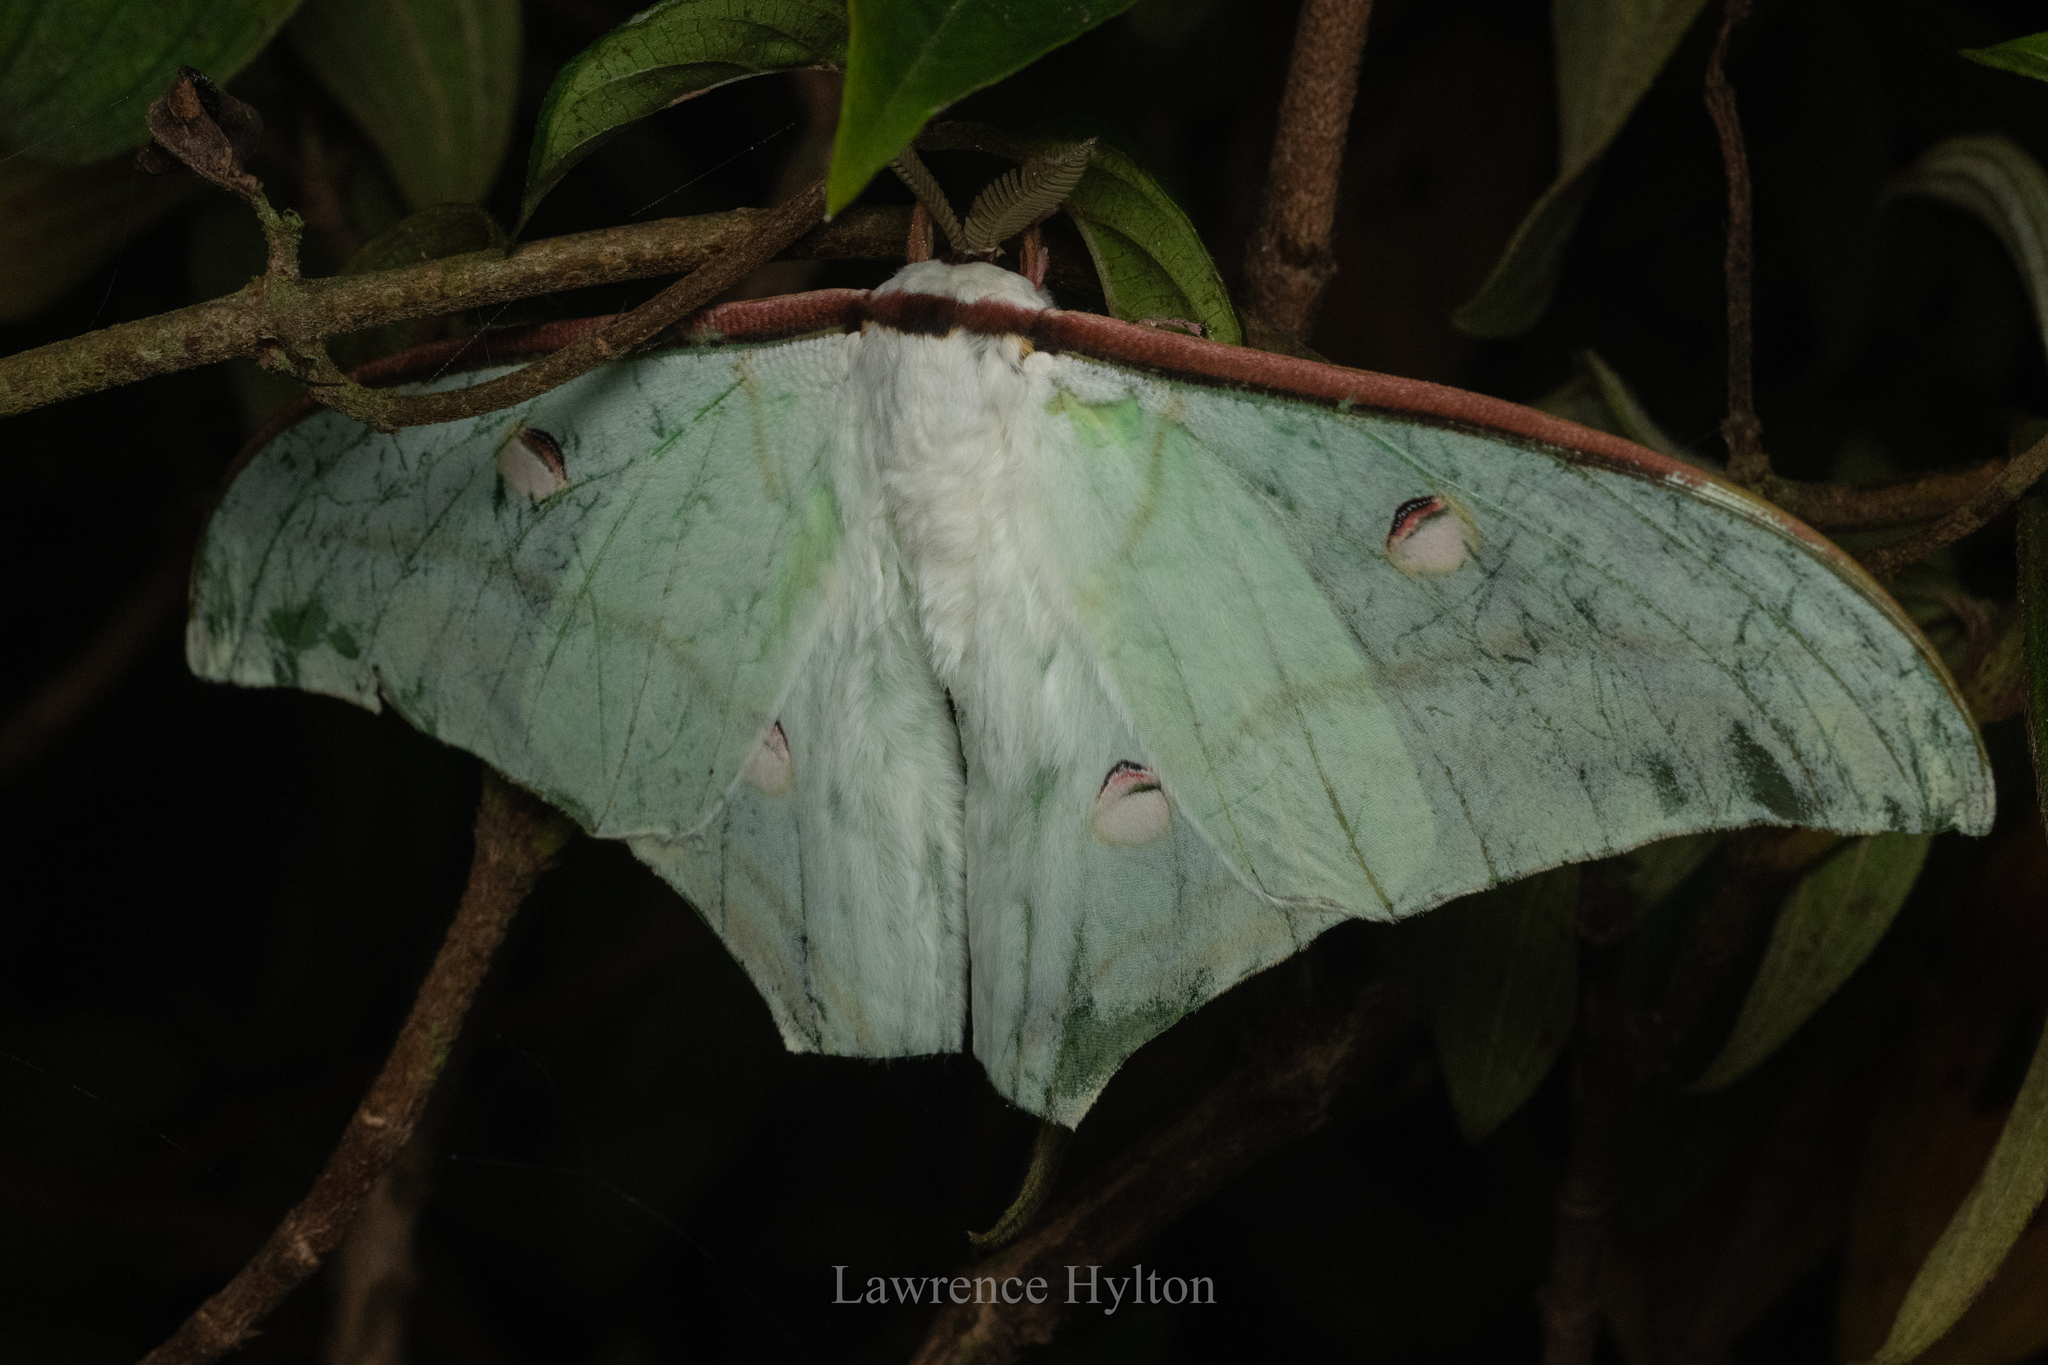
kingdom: Animalia
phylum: Arthropoda
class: Insecta
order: Lepidoptera
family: Saturniidae
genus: Actias
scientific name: Actias ningpoana
